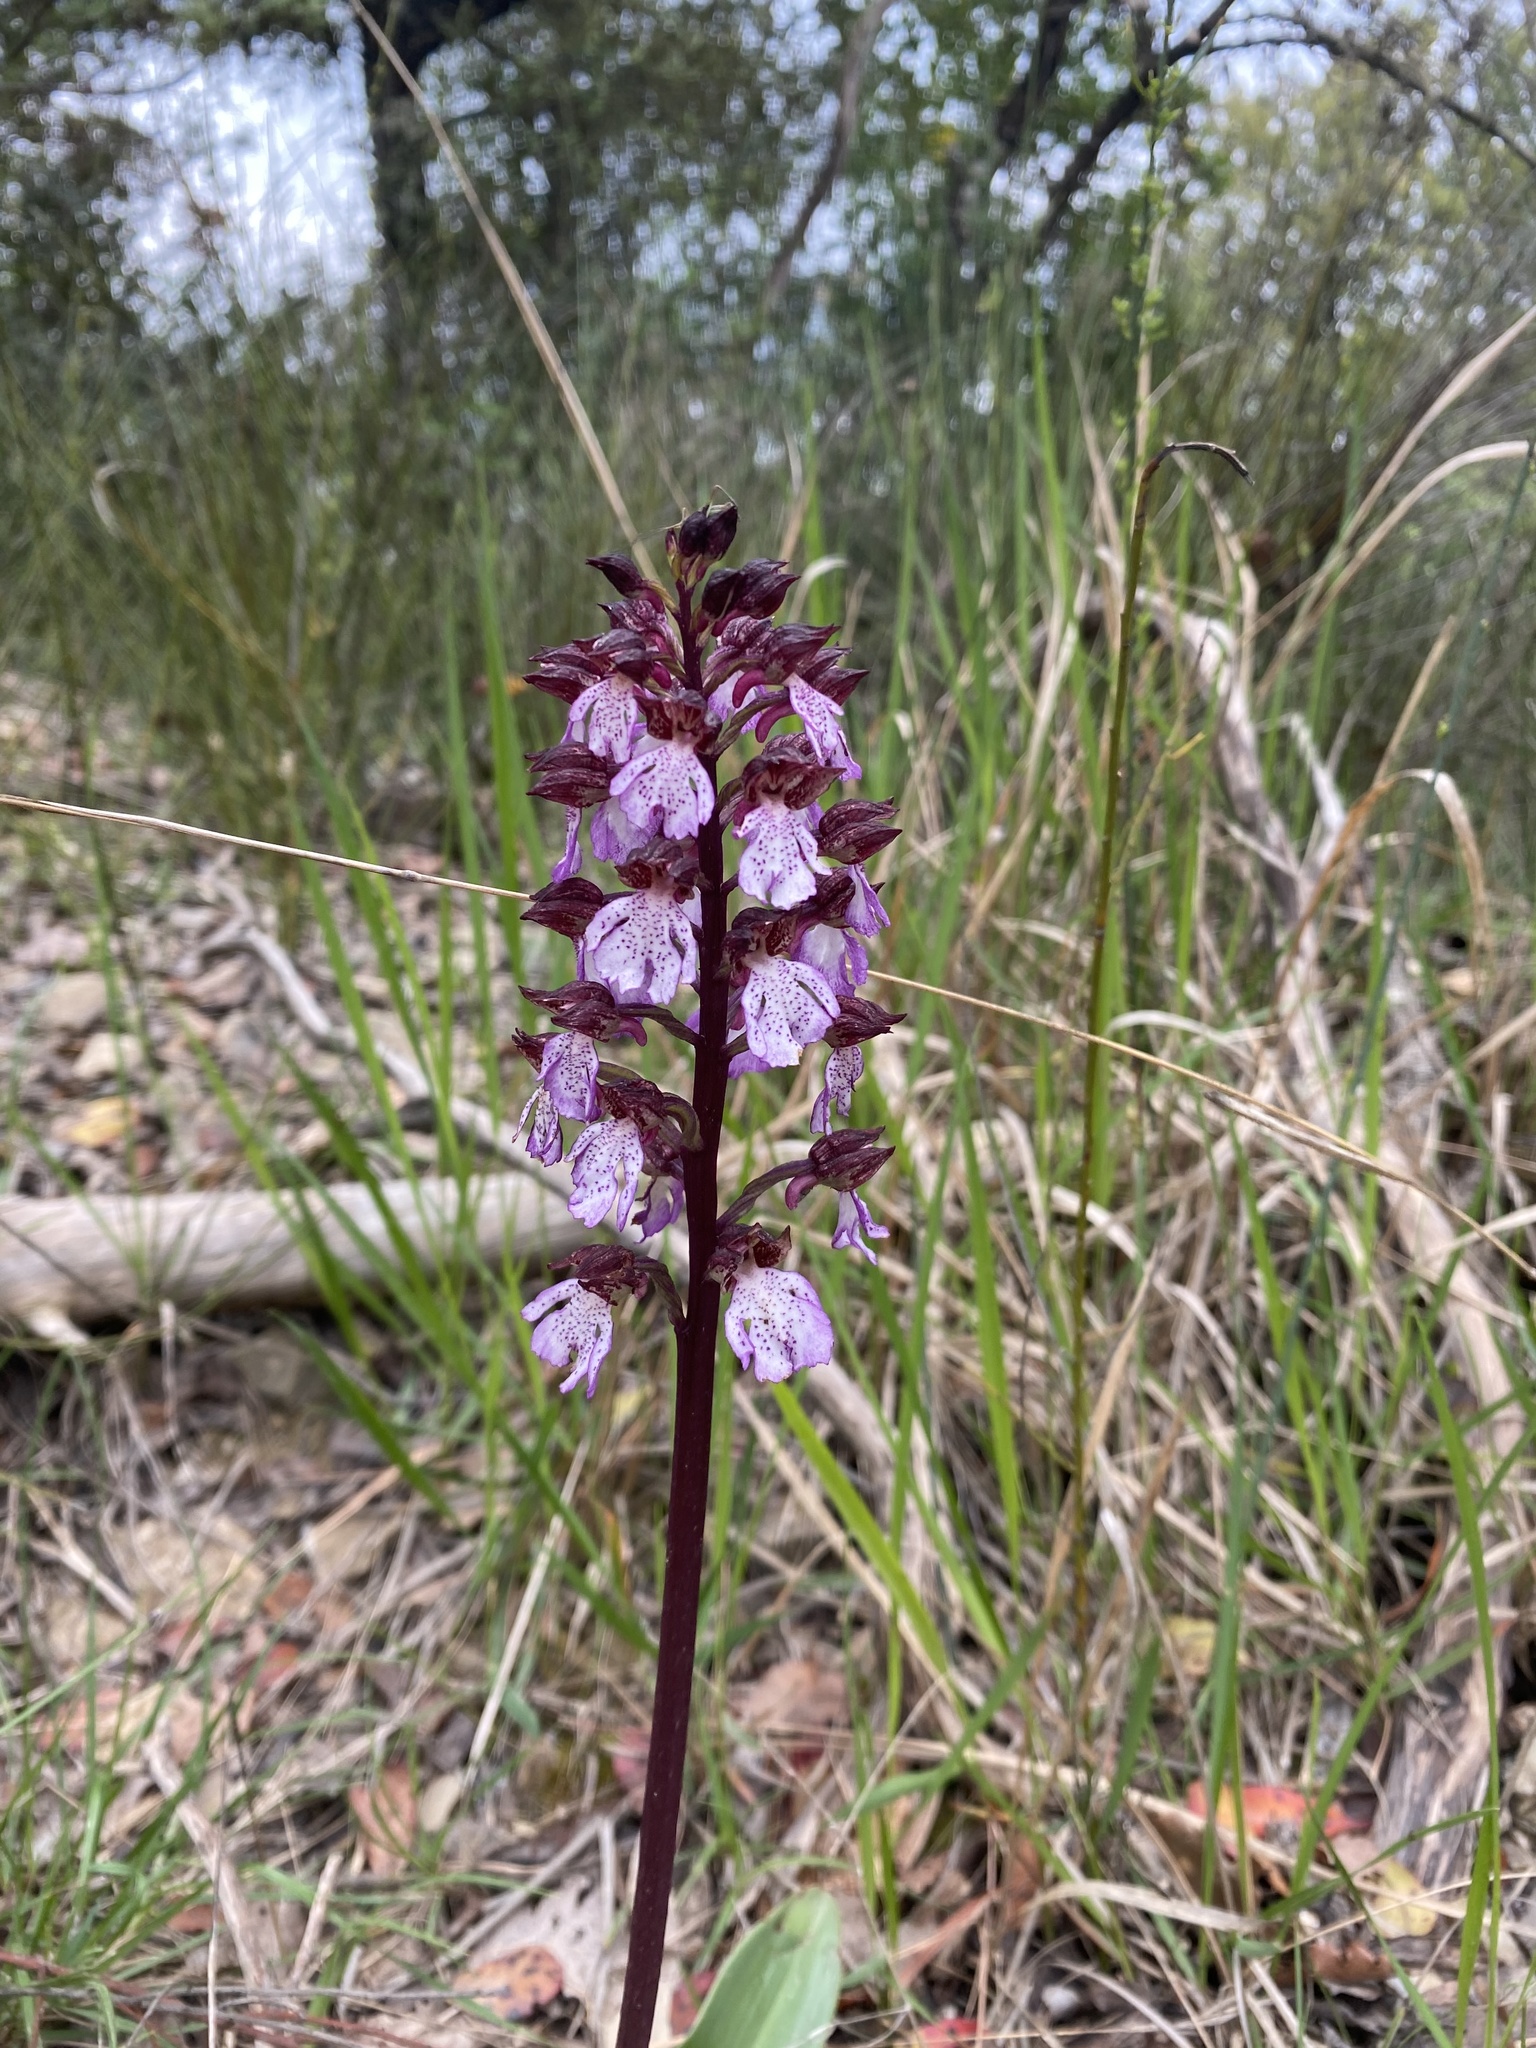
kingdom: Plantae
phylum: Tracheophyta
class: Liliopsida
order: Asparagales
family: Orchidaceae
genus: Orchis
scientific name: Orchis purpurea
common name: Lady orchid
